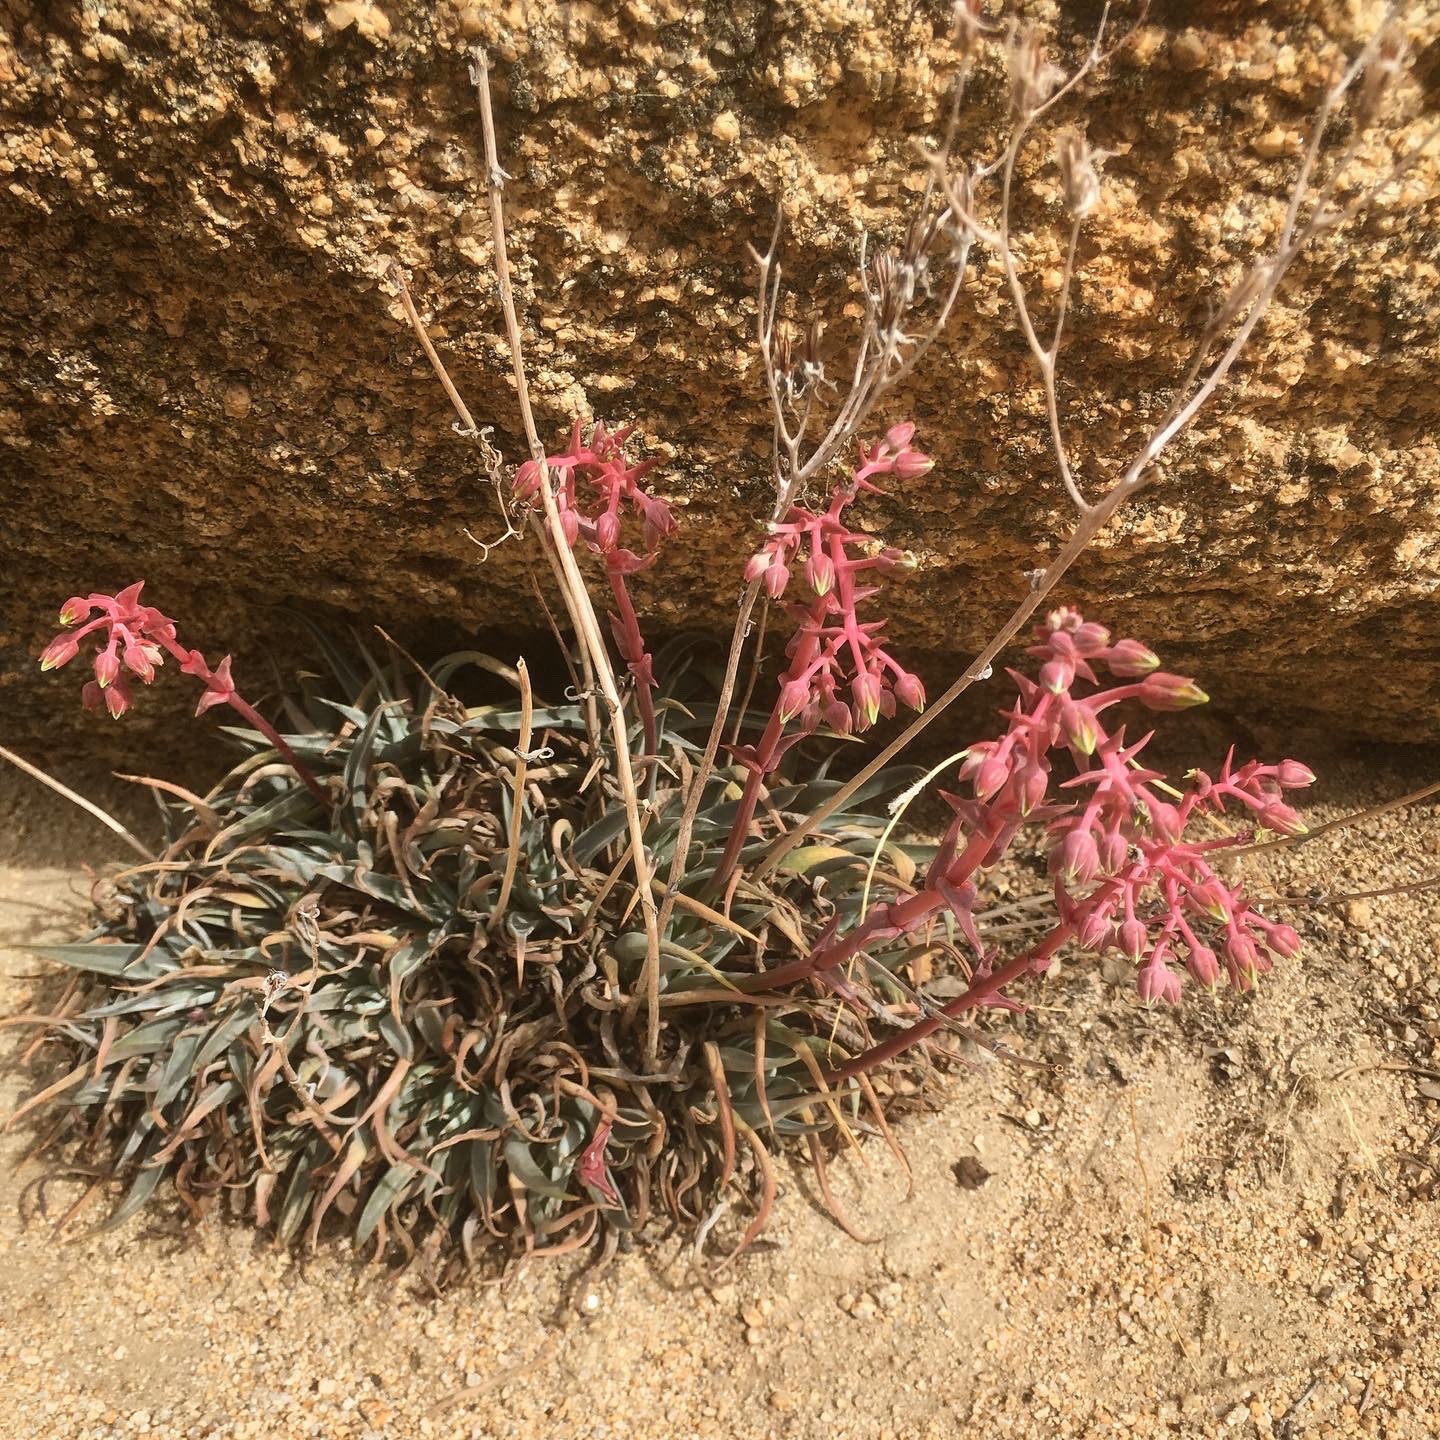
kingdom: Plantae
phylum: Tracheophyta
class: Magnoliopsida
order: Saxifragales
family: Crassulaceae
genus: Dudleya
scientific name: Dudleya saxosa
